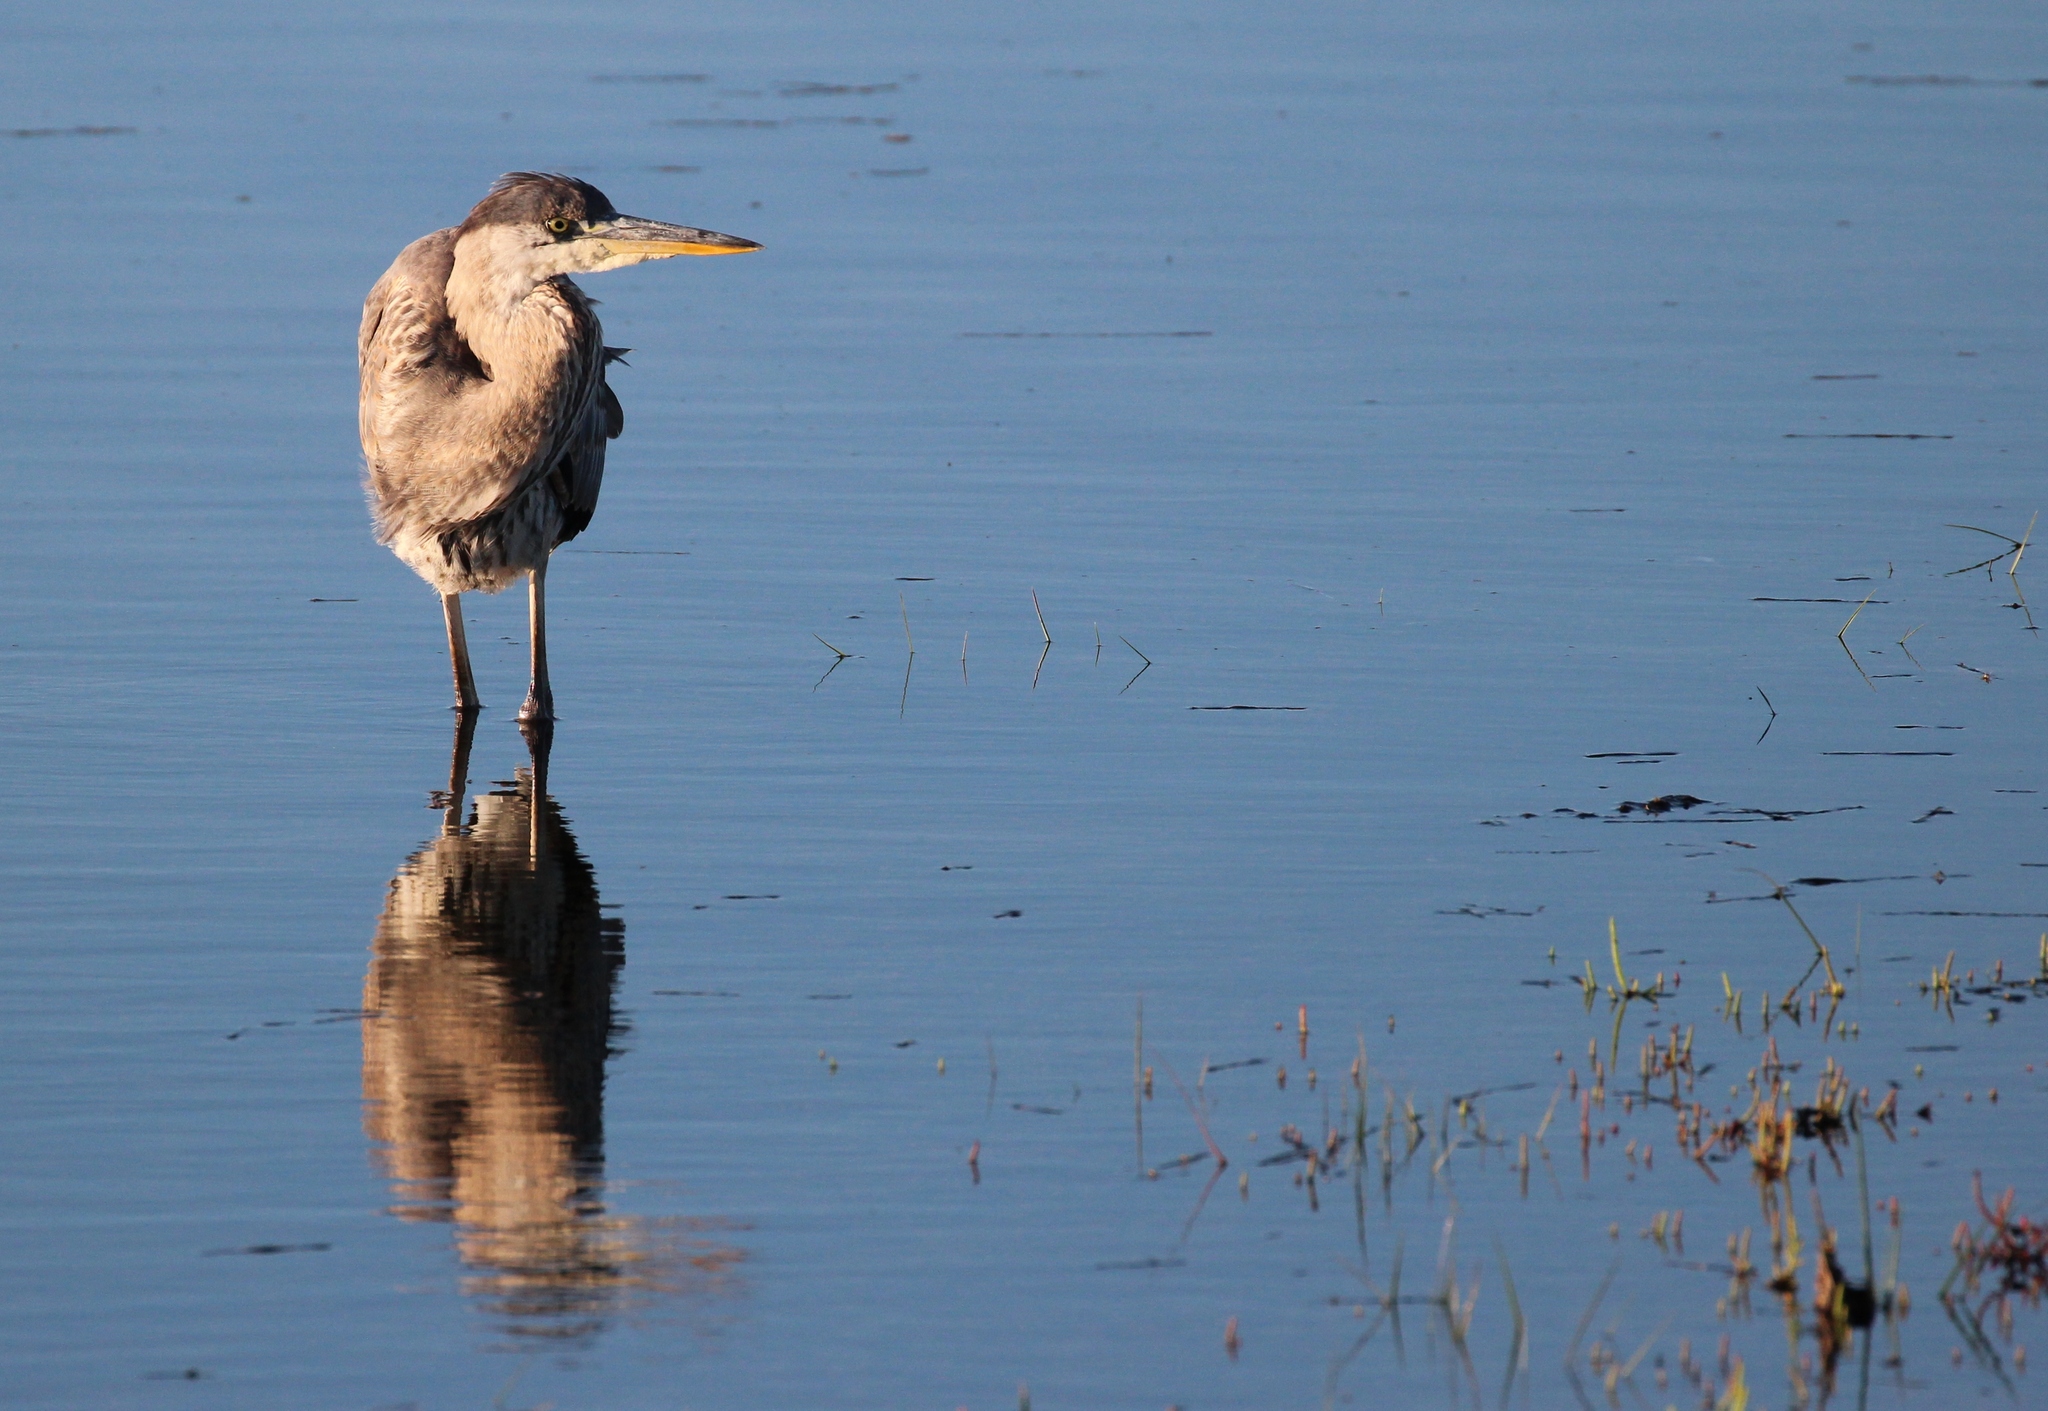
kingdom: Animalia
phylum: Chordata
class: Aves
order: Pelecaniformes
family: Ardeidae
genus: Ardea
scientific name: Ardea herodias
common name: Great blue heron
